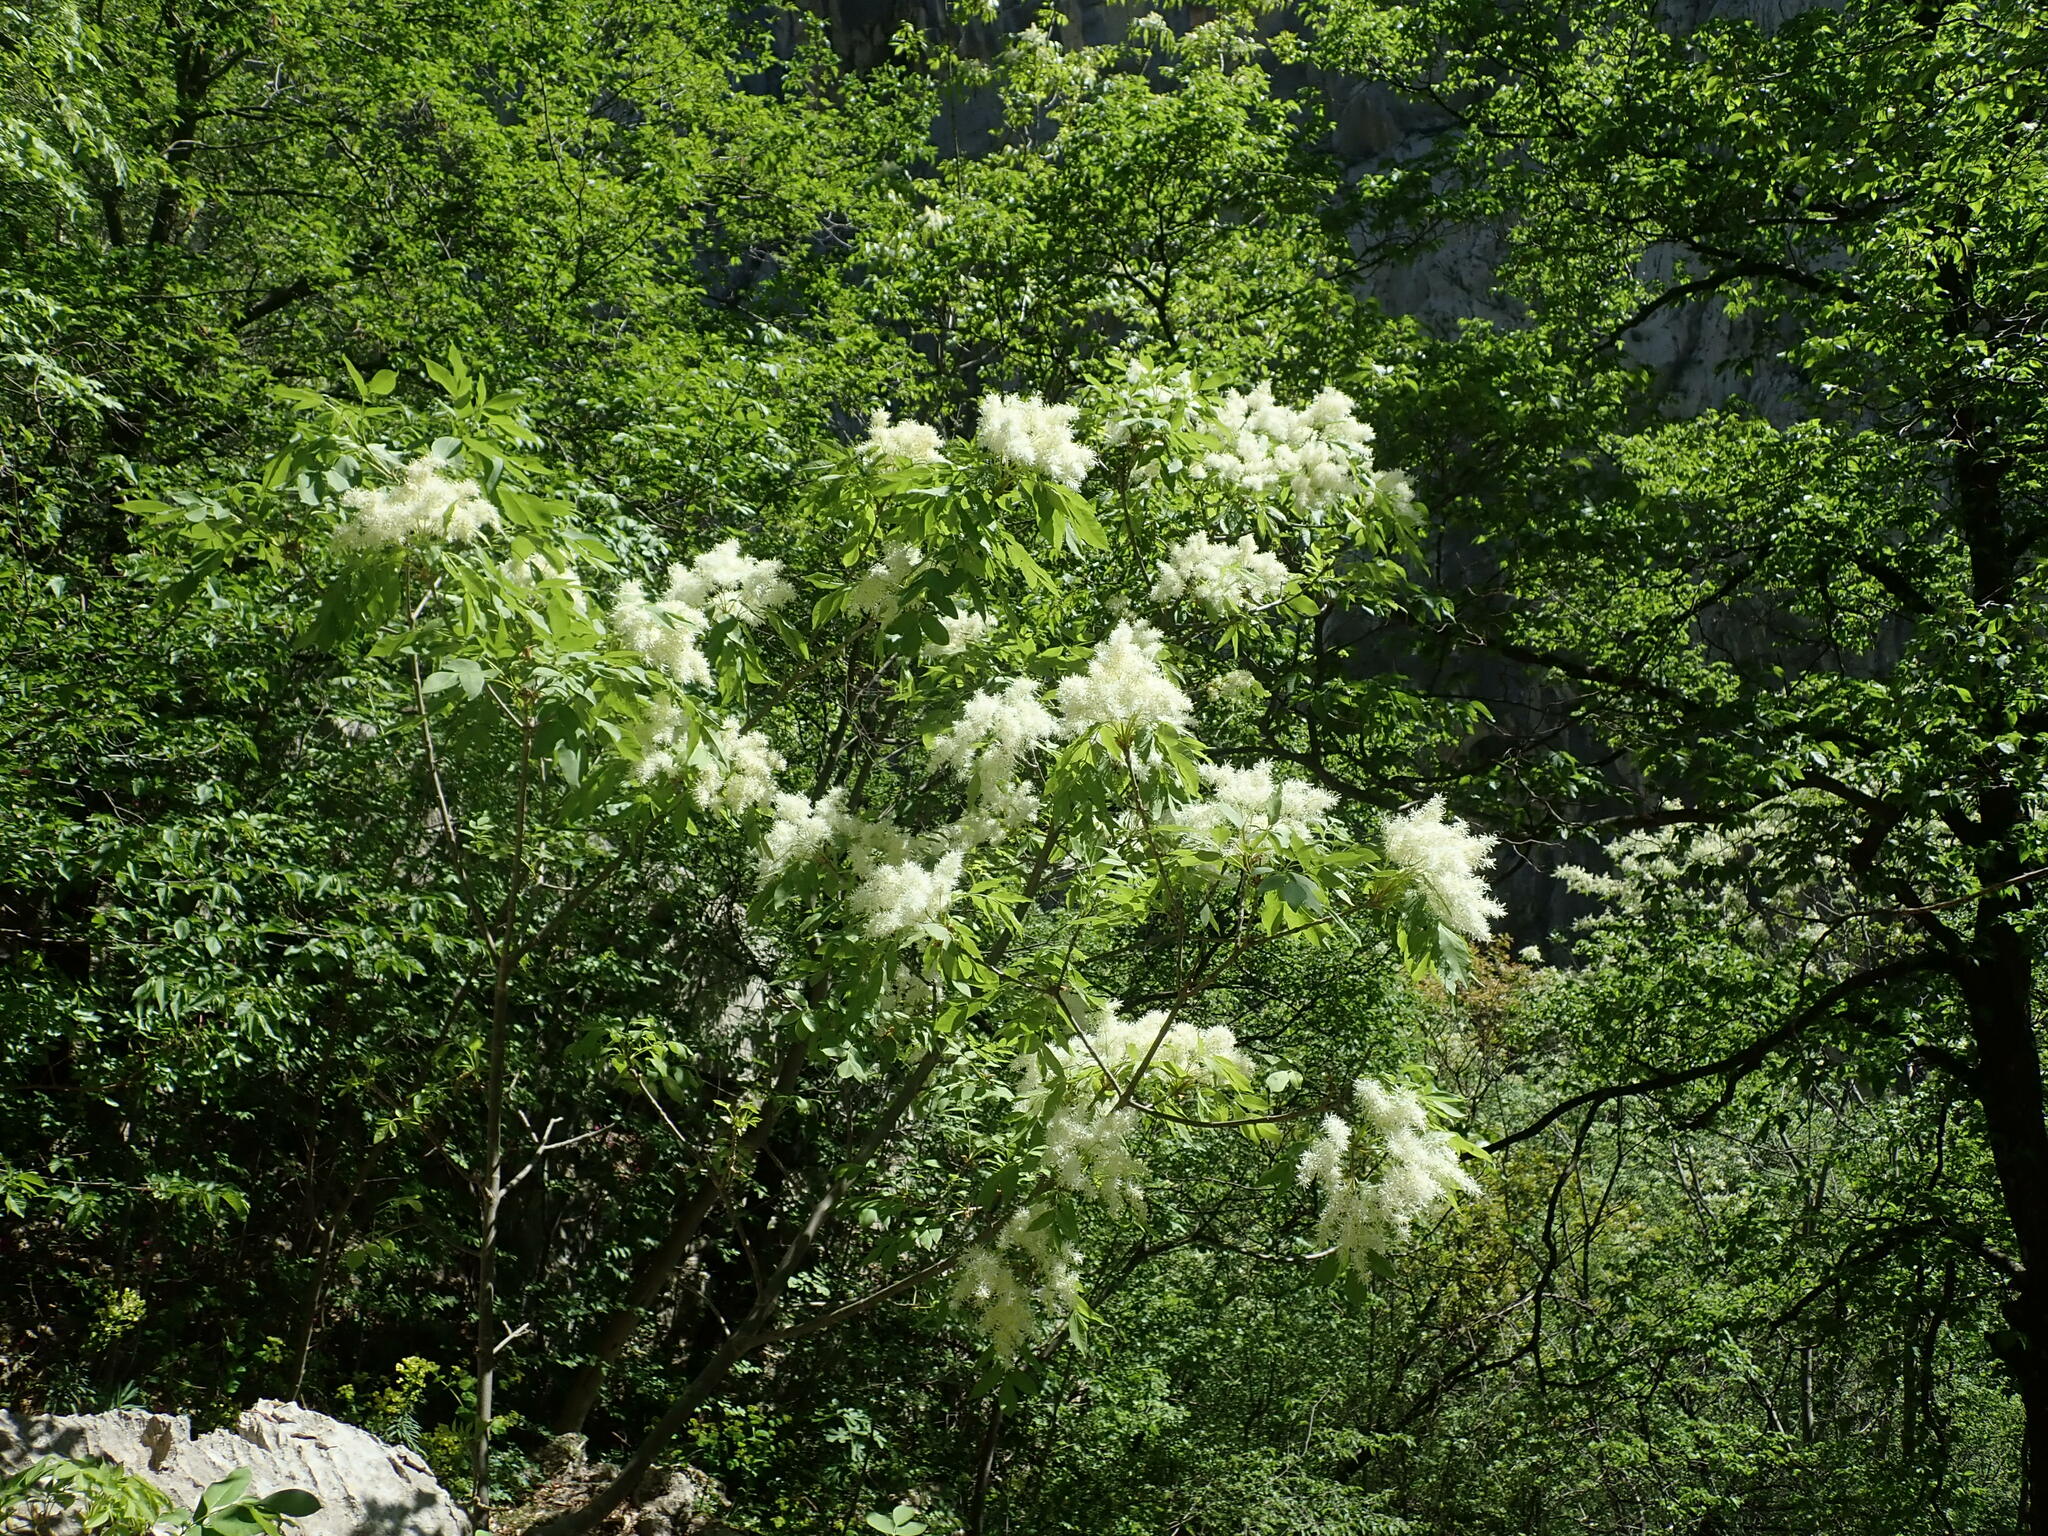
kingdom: Plantae
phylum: Tracheophyta
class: Magnoliopsida
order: Lamiales
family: Oleaceae
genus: Fraxinus
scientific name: Fraxinus ornus
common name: Manna ash
